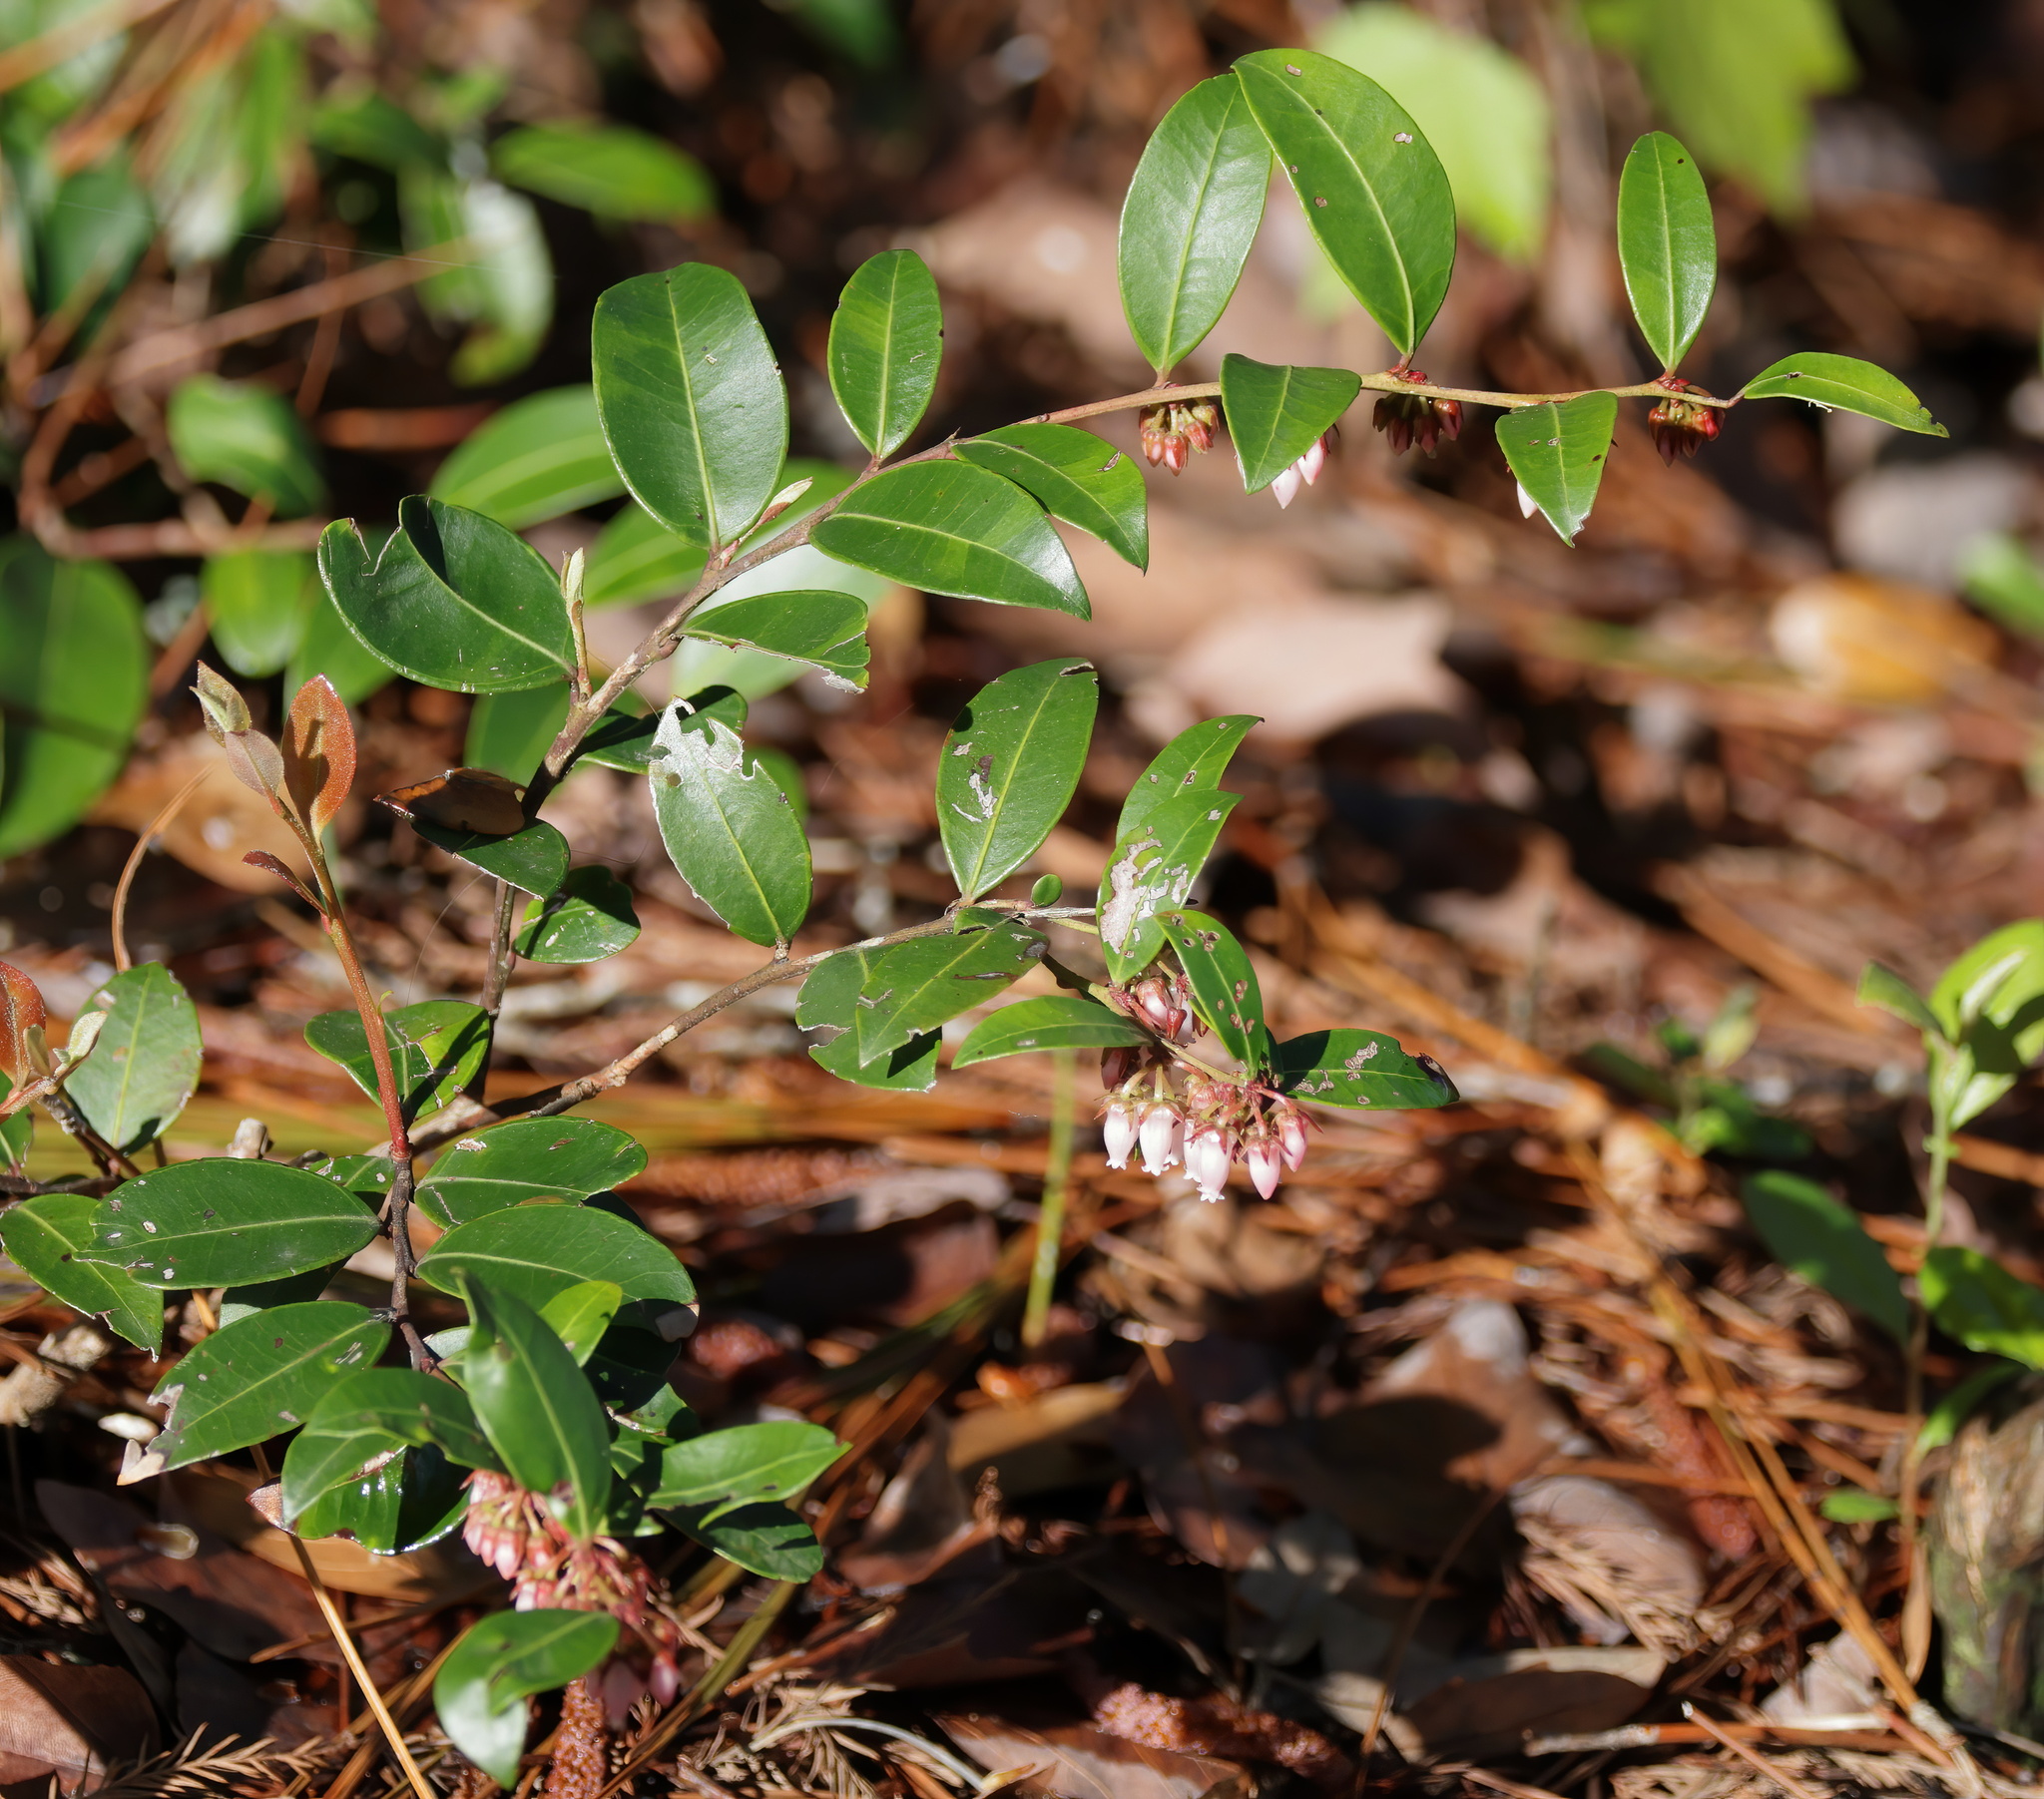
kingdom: Plantae
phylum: Tracheophyta
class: Magnoliopsida
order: Ericales
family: Ericaceae
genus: Lyonia
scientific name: Lyonia lucida
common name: Fetterbush
